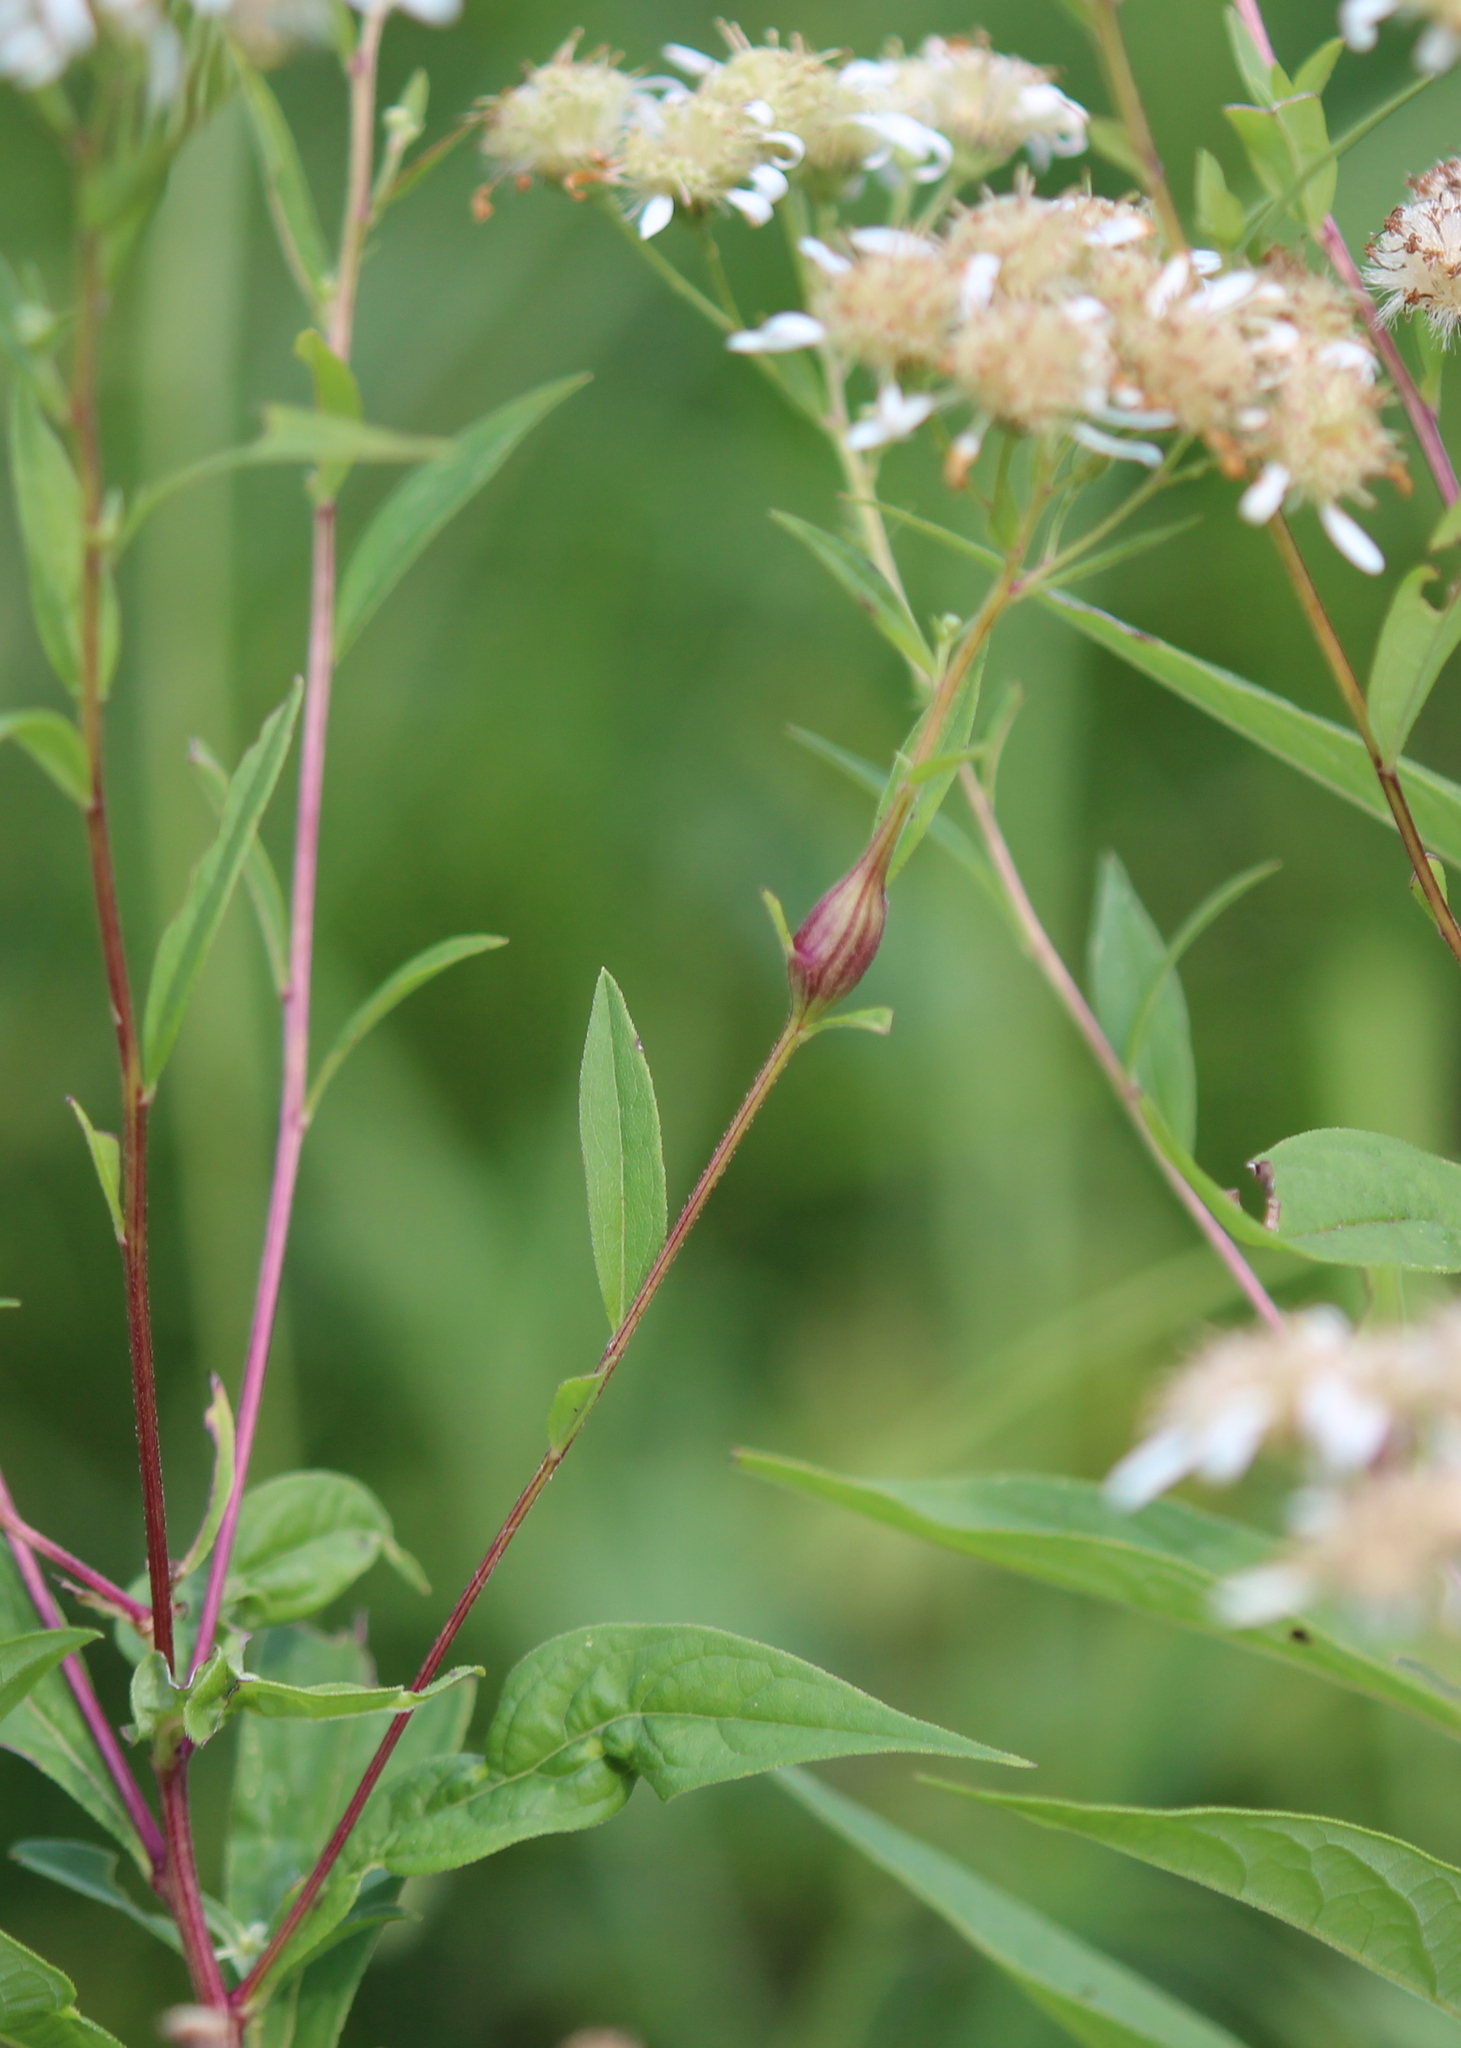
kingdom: Plantae
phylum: Tracheophyta
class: Magnoliopsida
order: Asterales
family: Asteraceae
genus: Doellingeria
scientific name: Doellingeria umbellata
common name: Flat-top white aster
